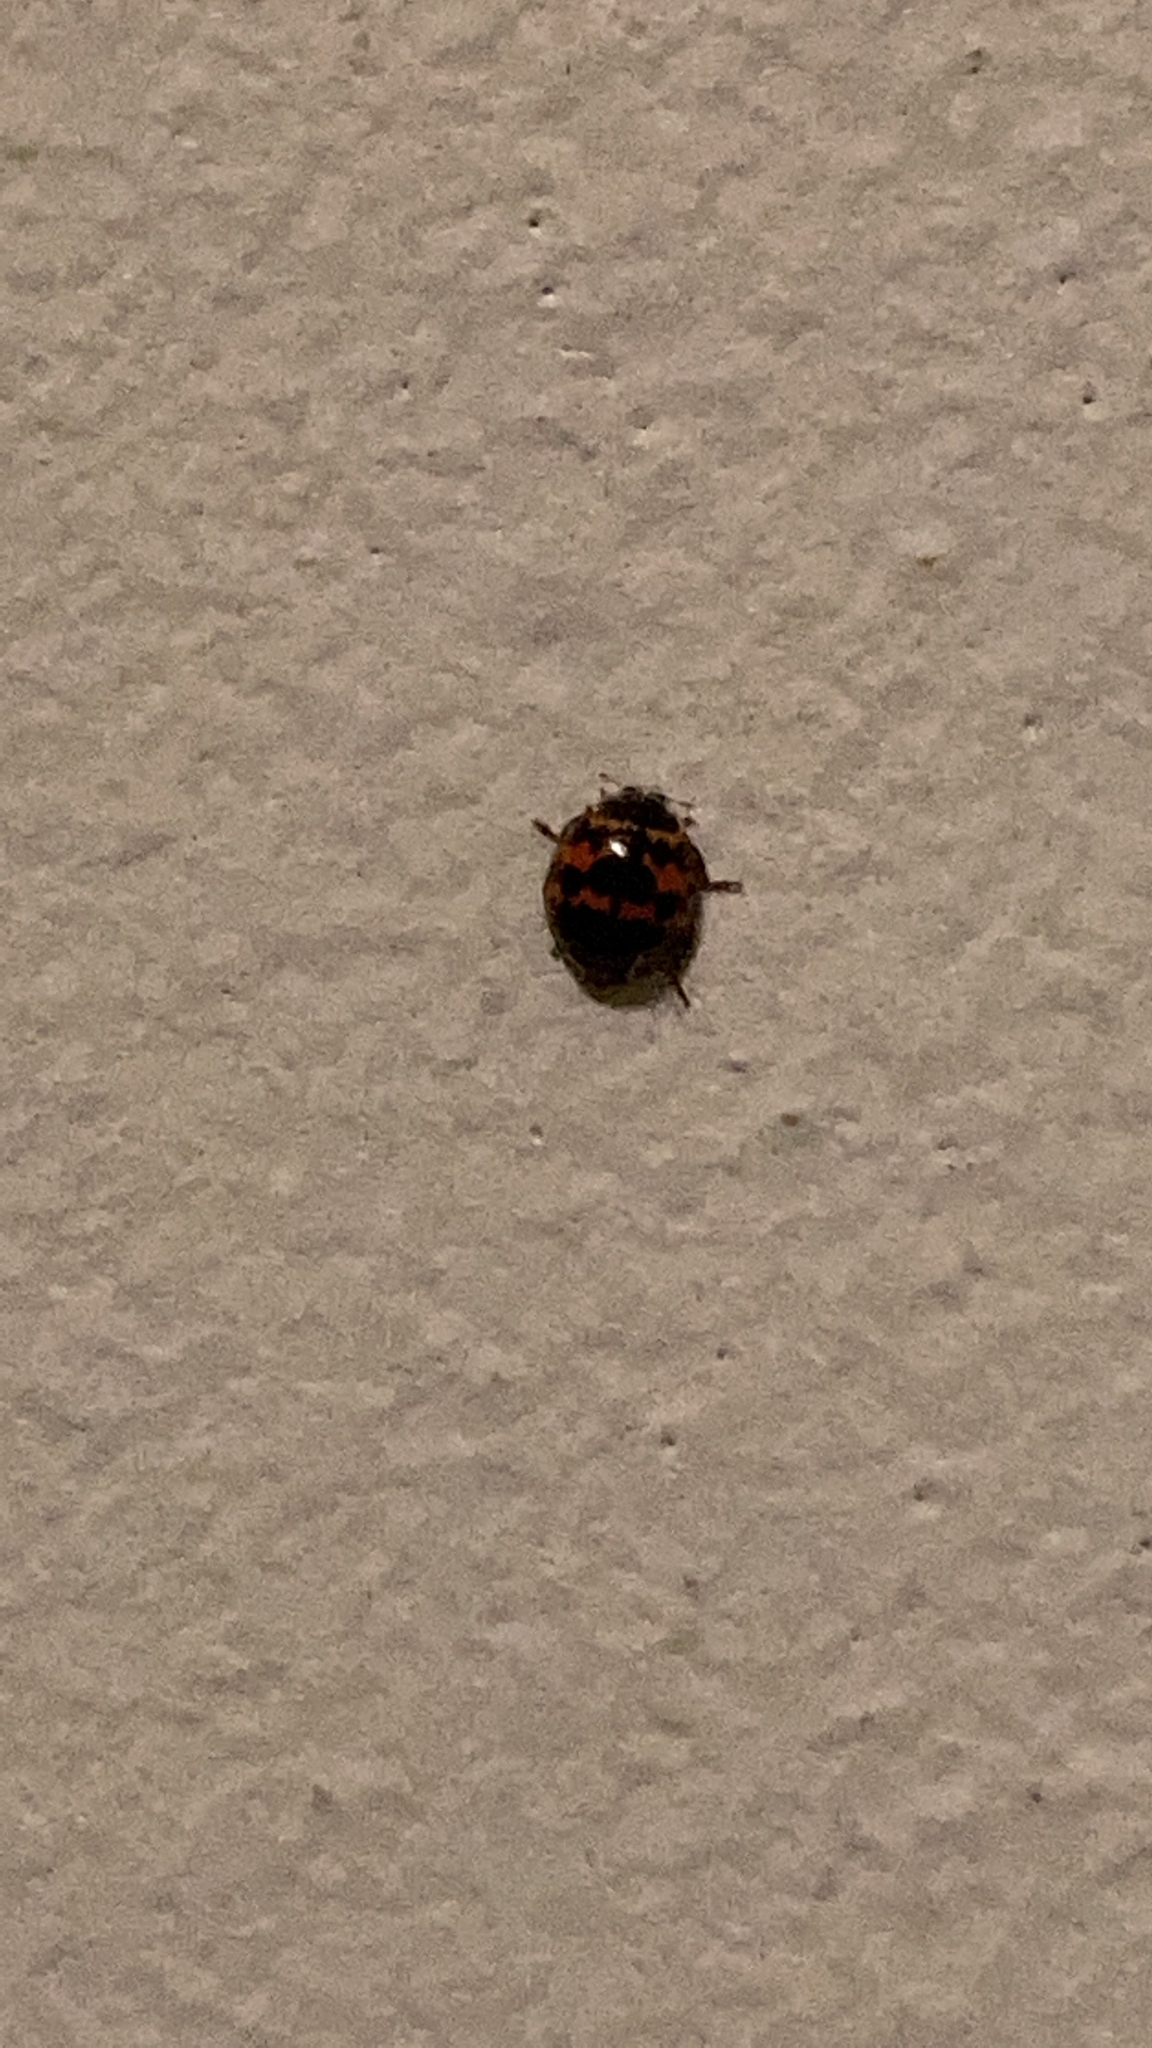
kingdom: Animalia
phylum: Arthropoda
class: Insecta
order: Coleoptera
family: Coccinellidae
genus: Harmonia
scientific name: Harmonia axyridis
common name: Harlequin ladybird
